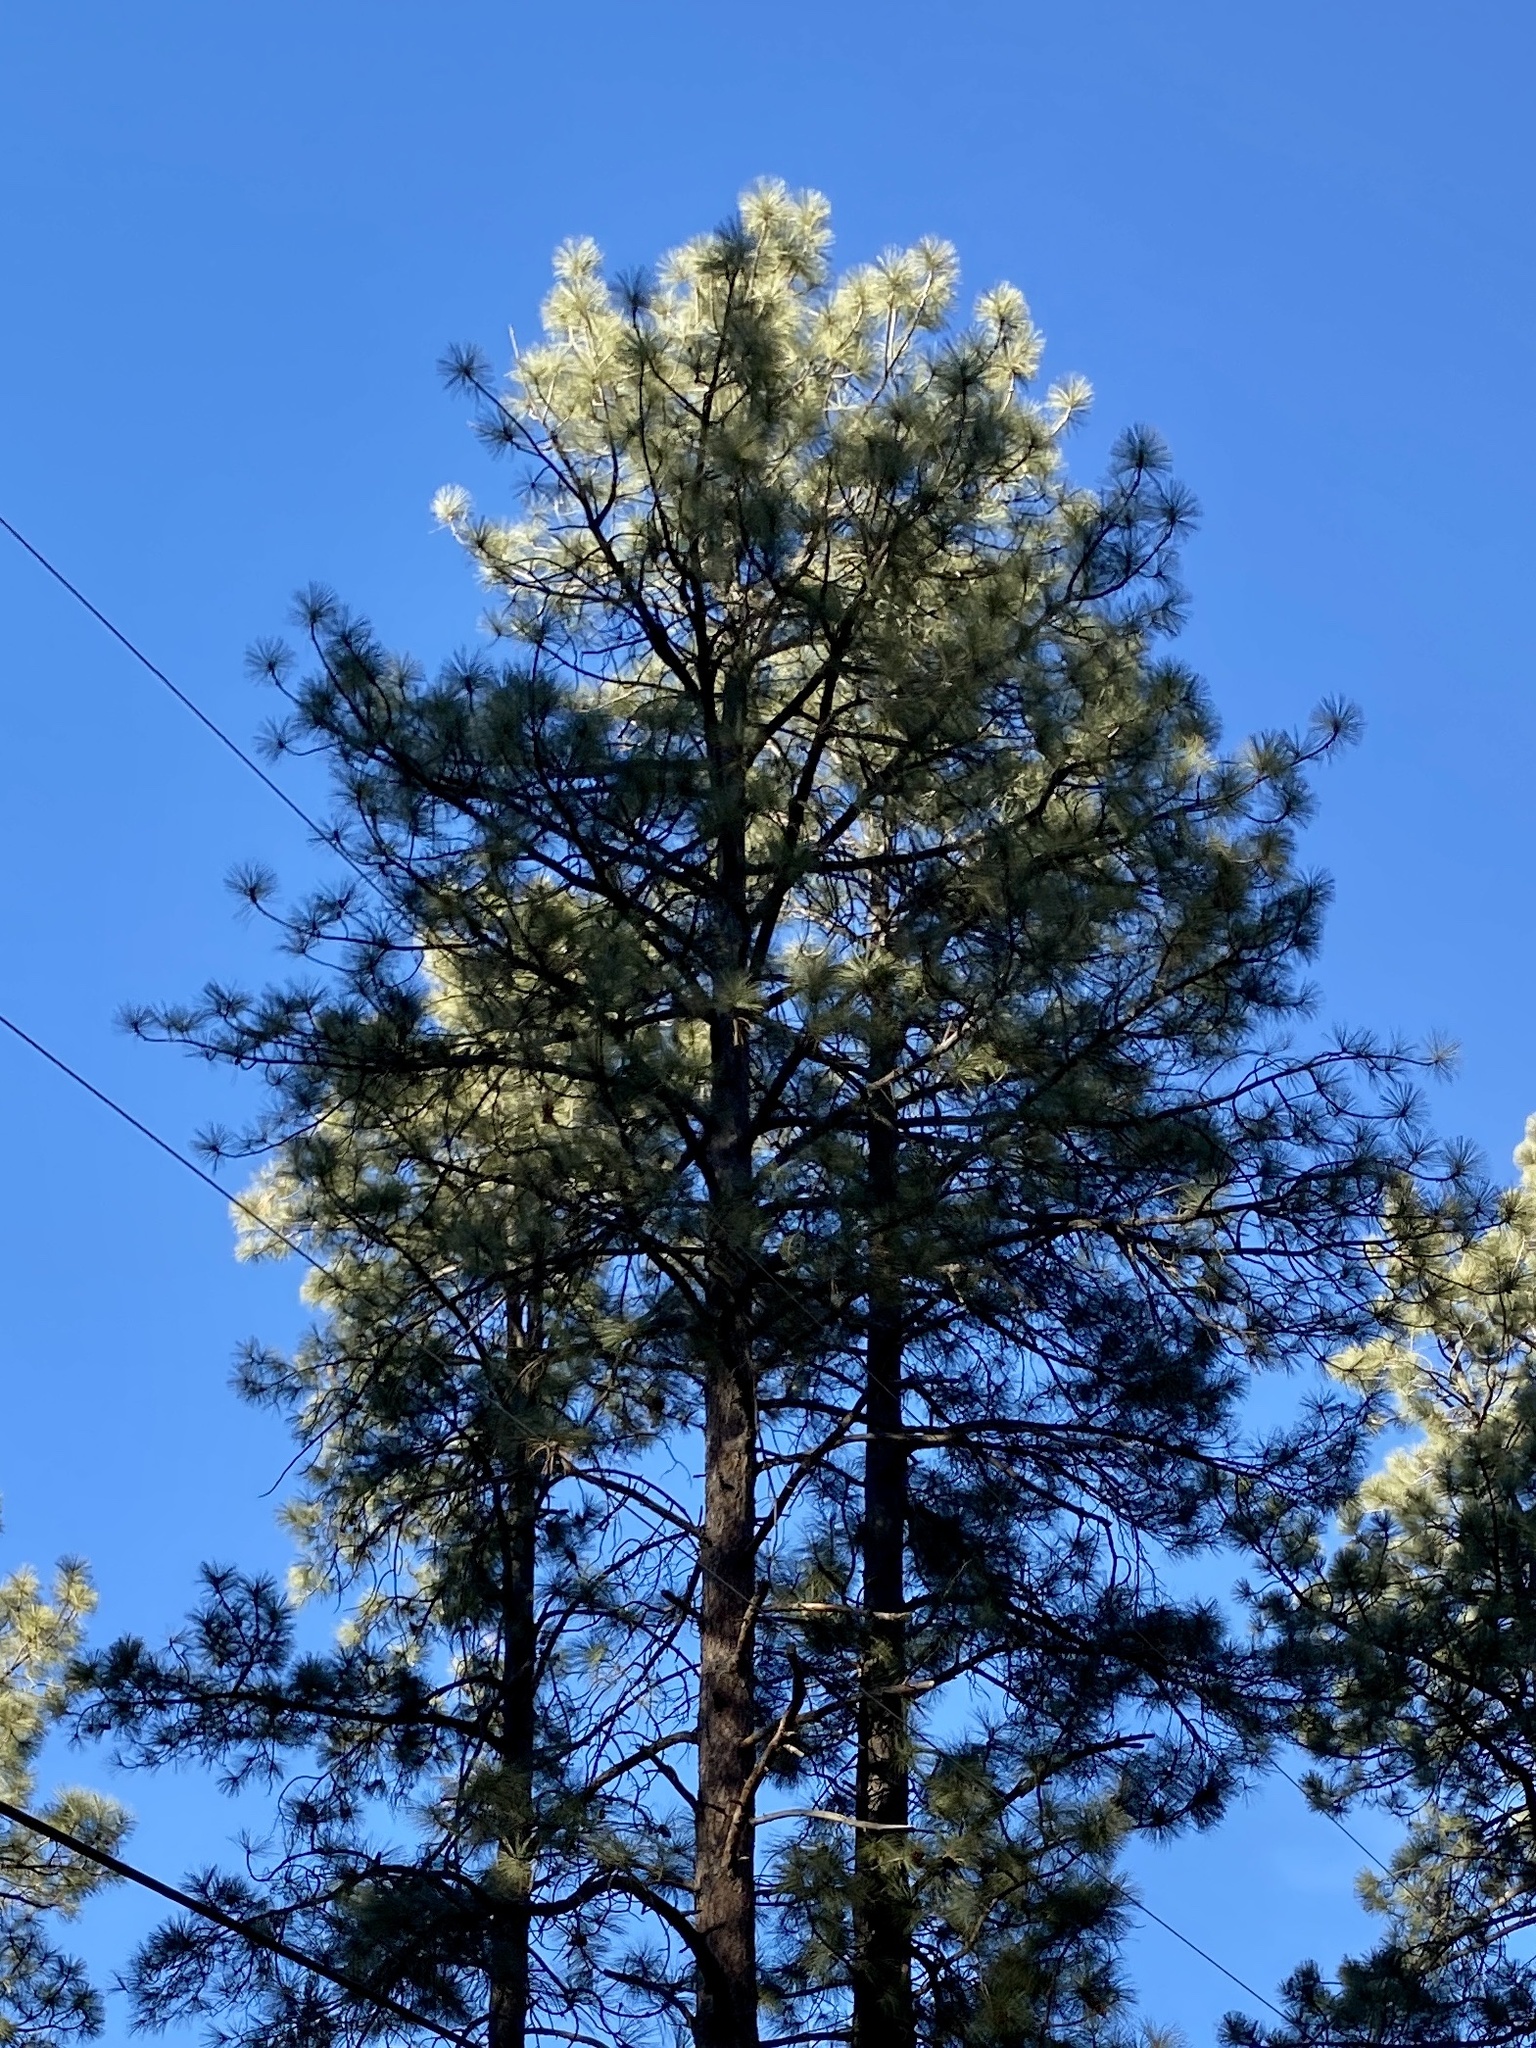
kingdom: Plantae
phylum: Tracheophyta
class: Pinopsida
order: Pinales
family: Pinaceae
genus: Pinus
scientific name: Pinus ponderosa
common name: Western yellow-pine
